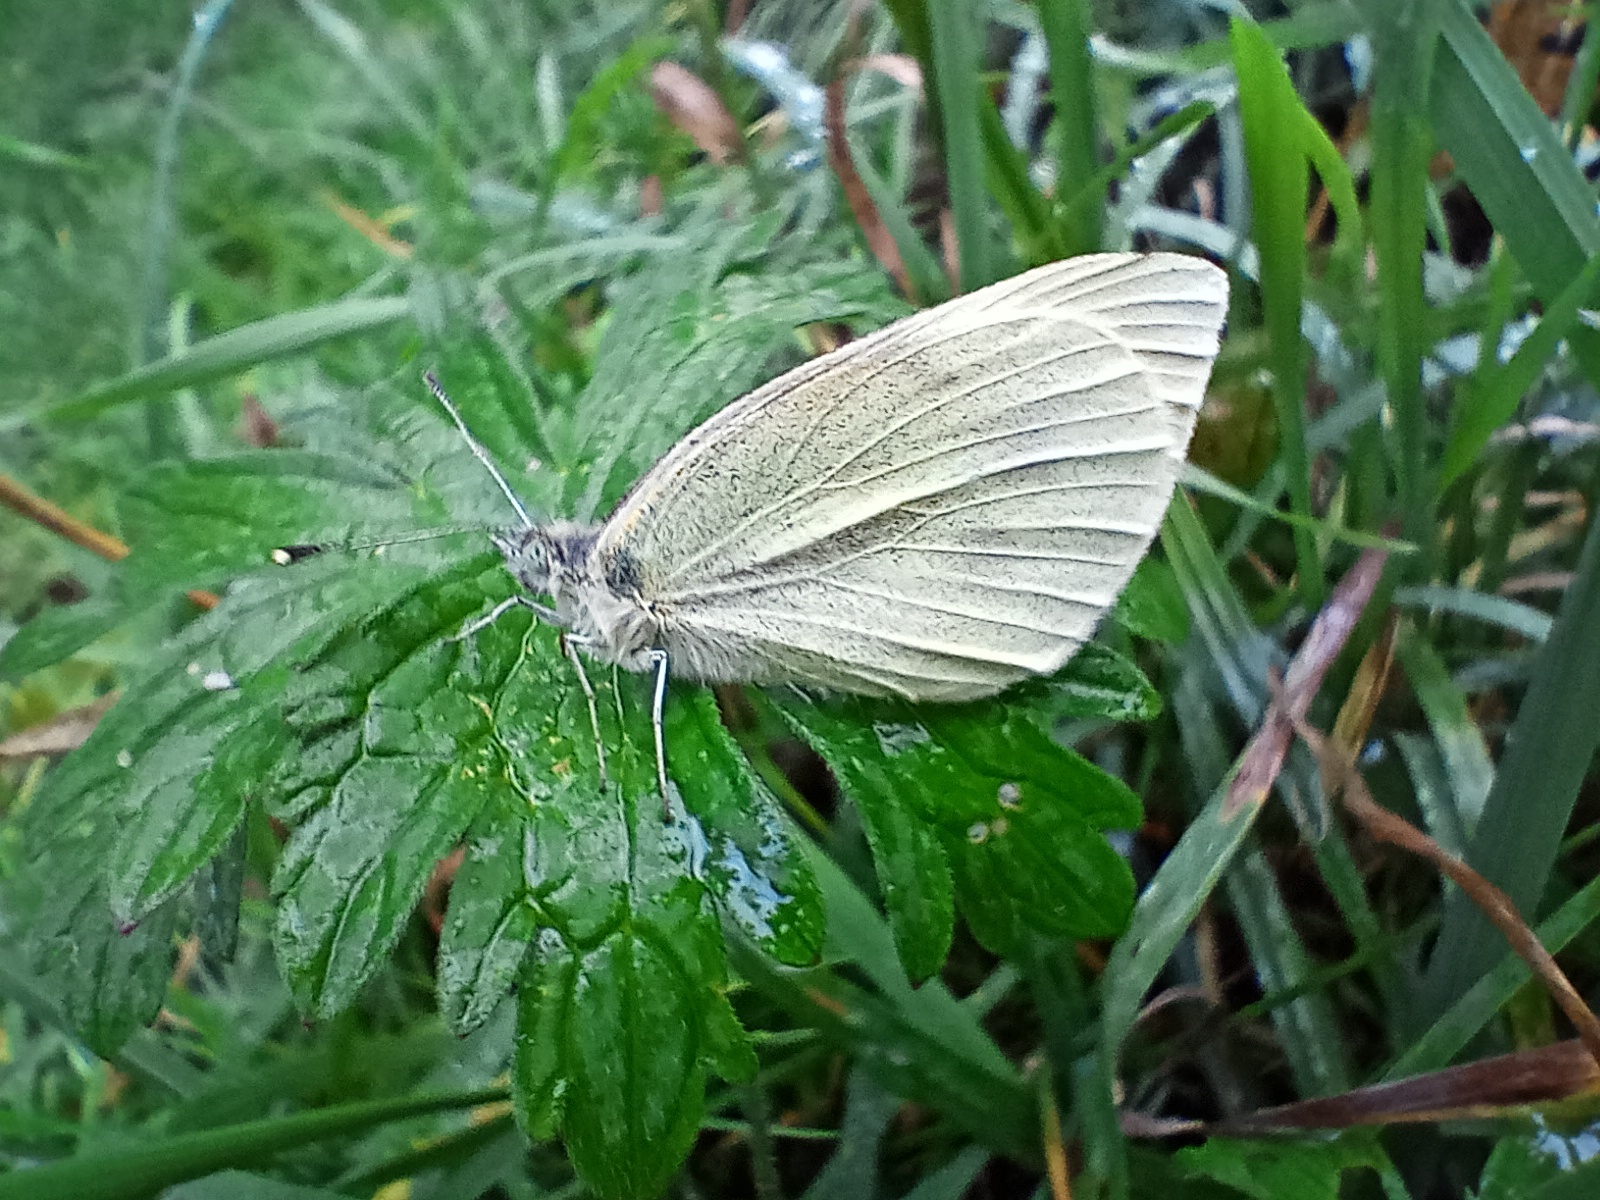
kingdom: Animalia
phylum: Arthropoda
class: Insecta
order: Lepidoptera
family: Pieridae
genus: Pieris
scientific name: Pieris rapae
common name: Small white
